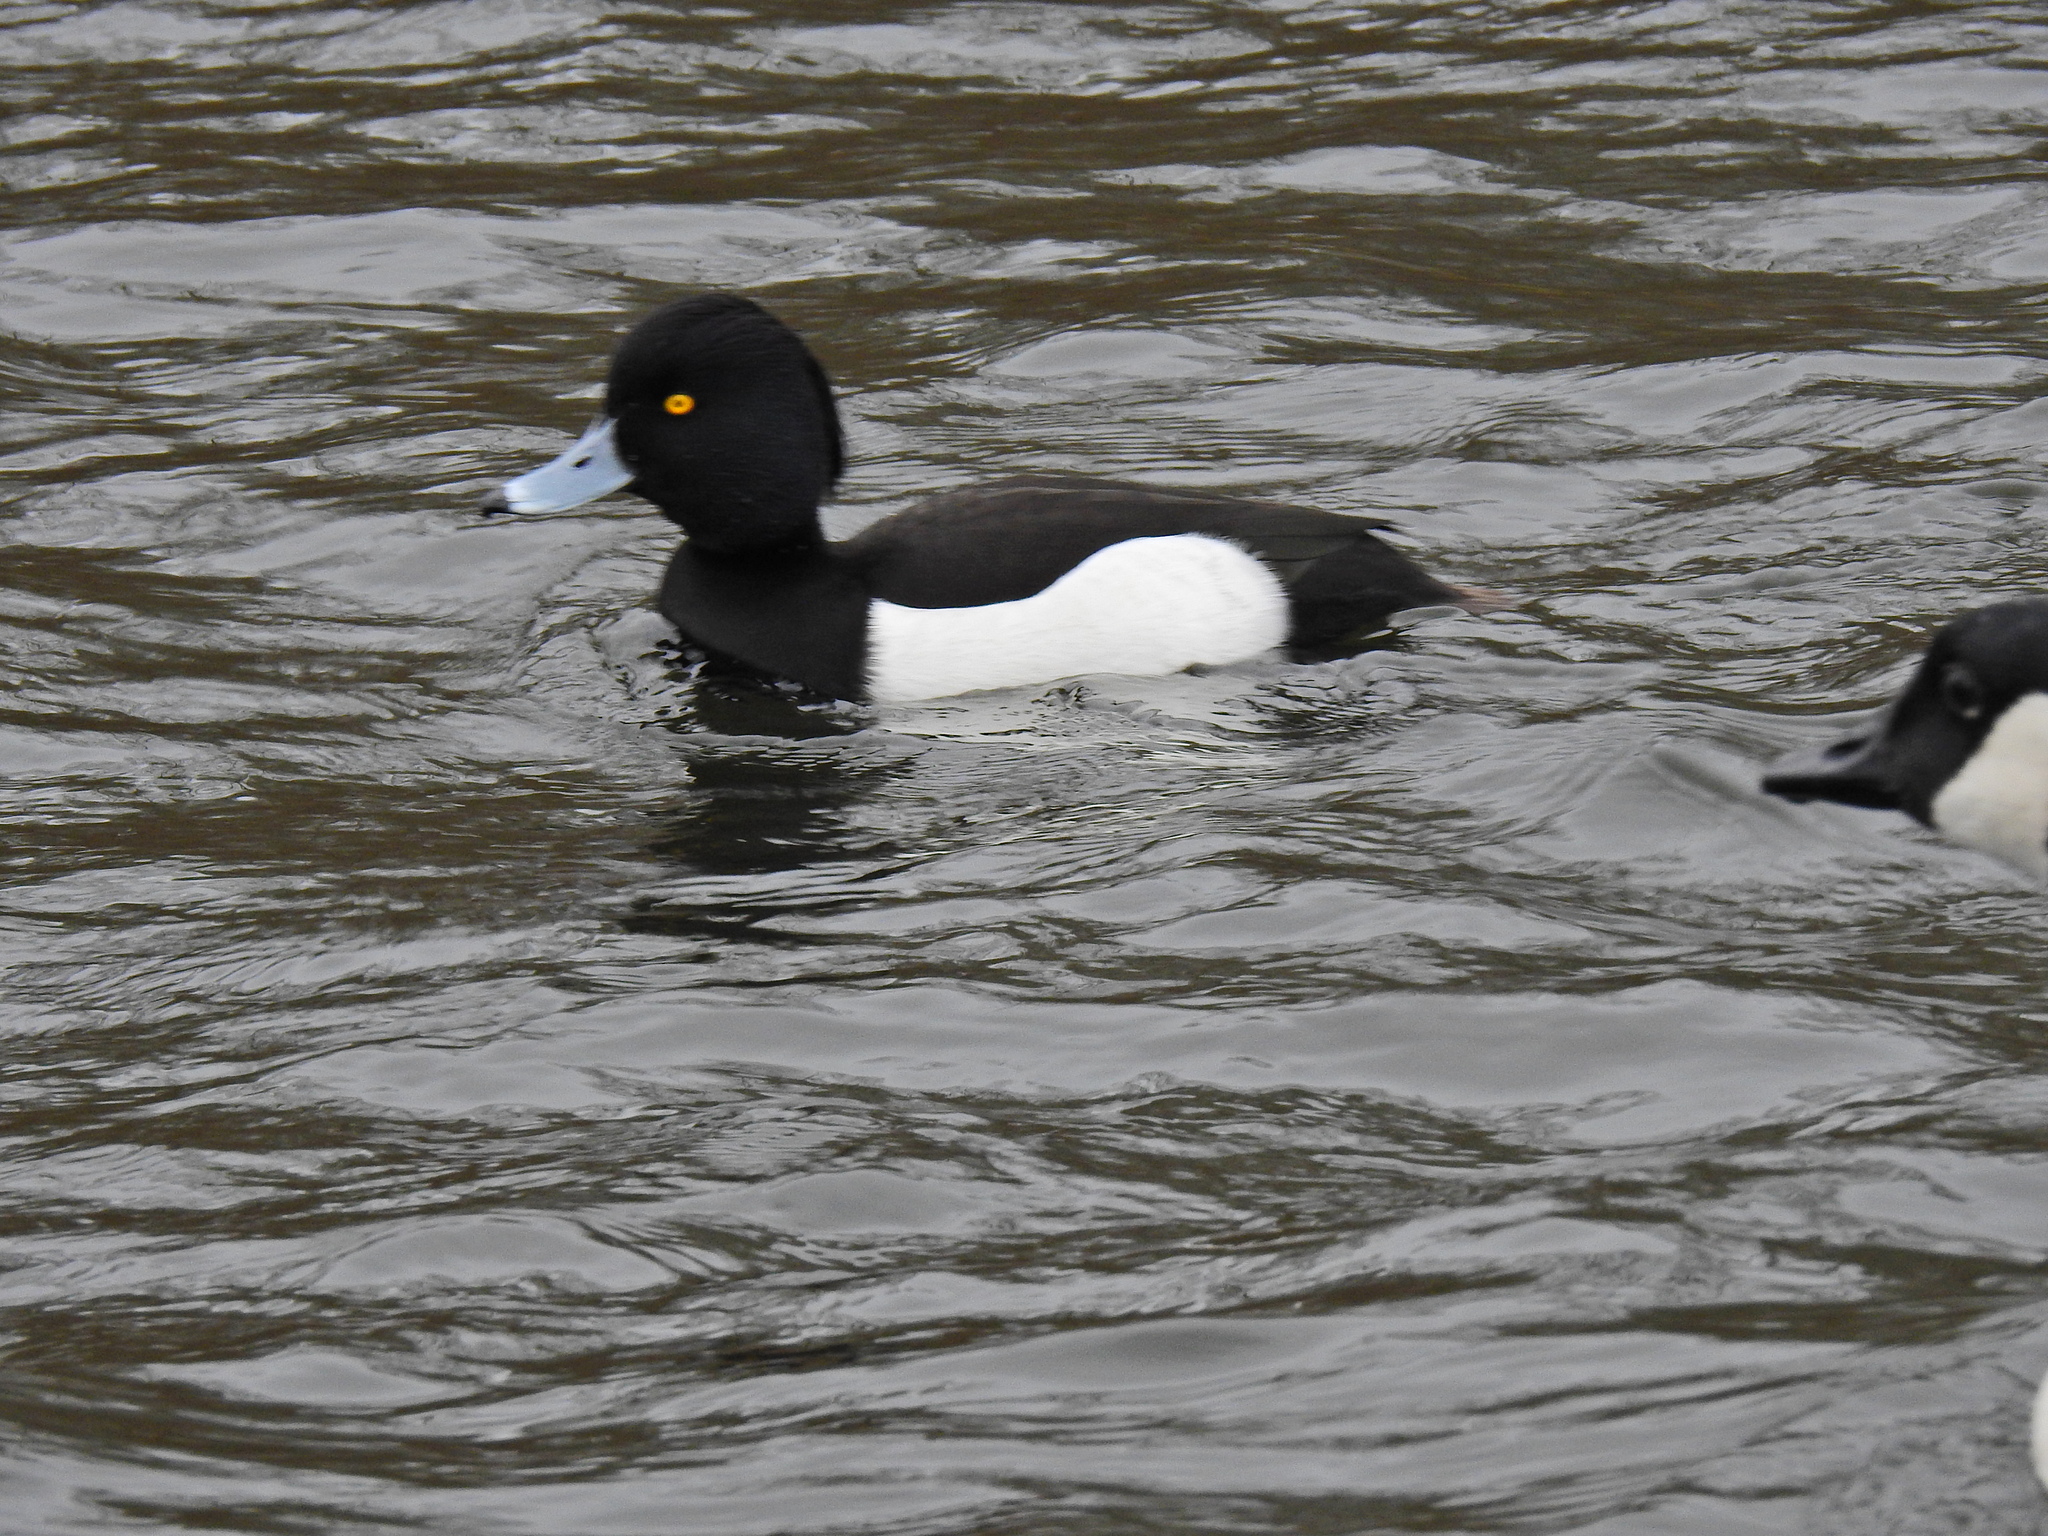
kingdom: Animalia
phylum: Chordata
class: Aves
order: Anseriformes
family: Anatidae
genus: Aythya
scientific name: Aythya fuligula
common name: Tufted duck
